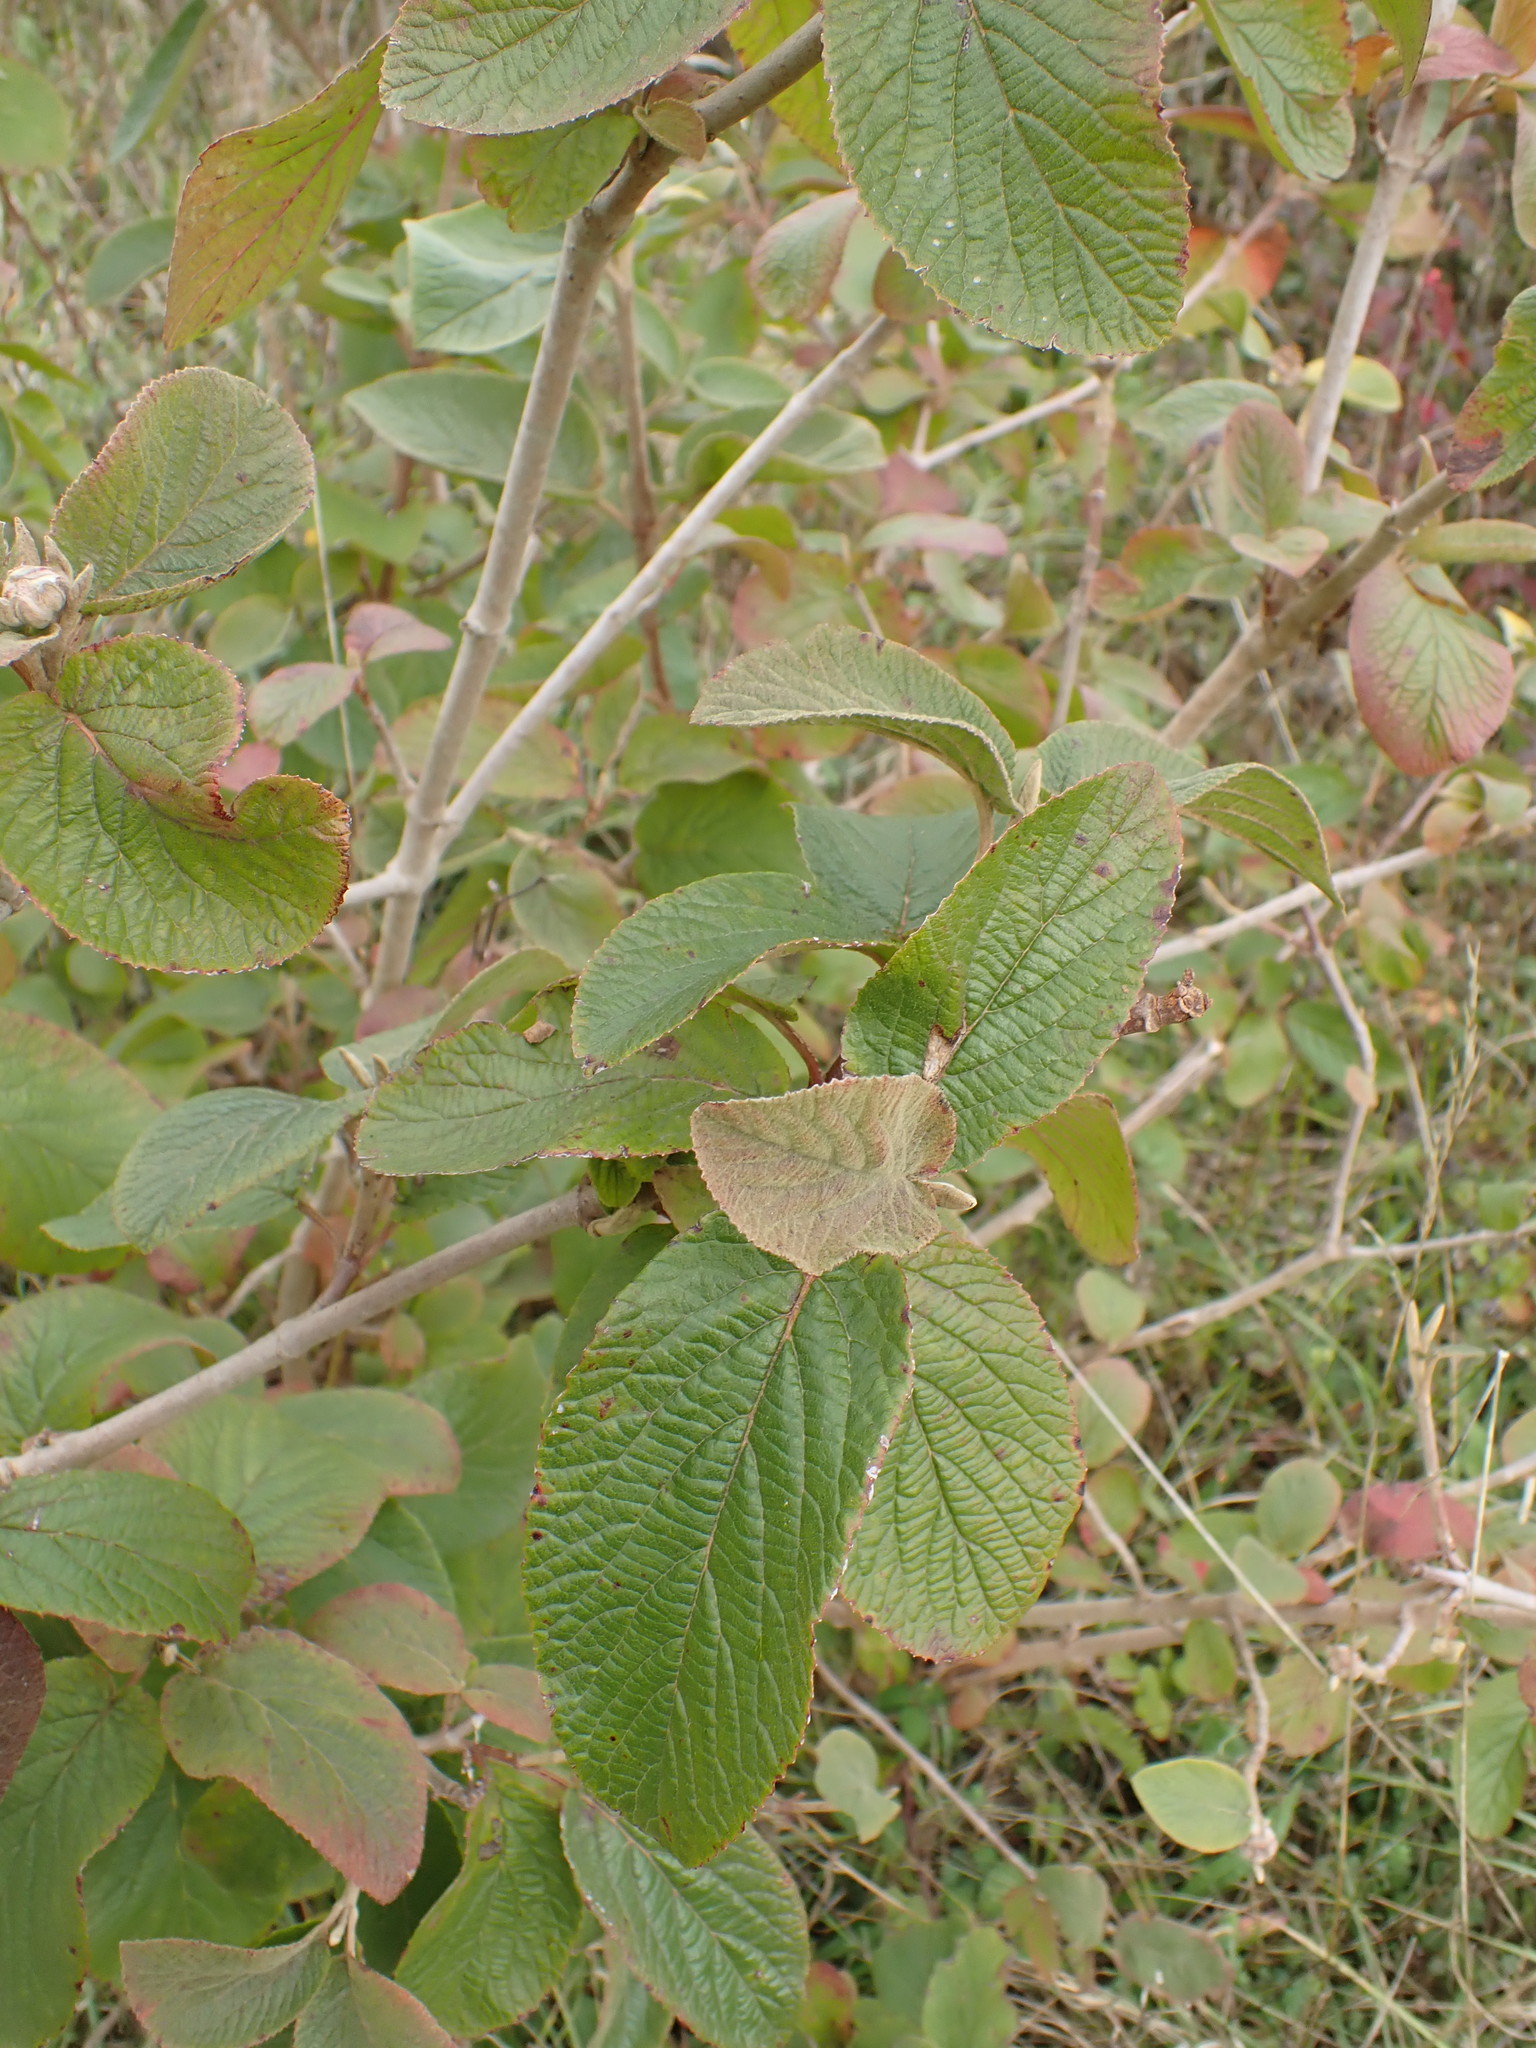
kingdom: Plantae
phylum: Tracheophyta
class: Magnoliopsida
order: Dipsacales
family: Viburnaceae
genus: Viburnum
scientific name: Viburnum lantana
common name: Wayfaring tree
